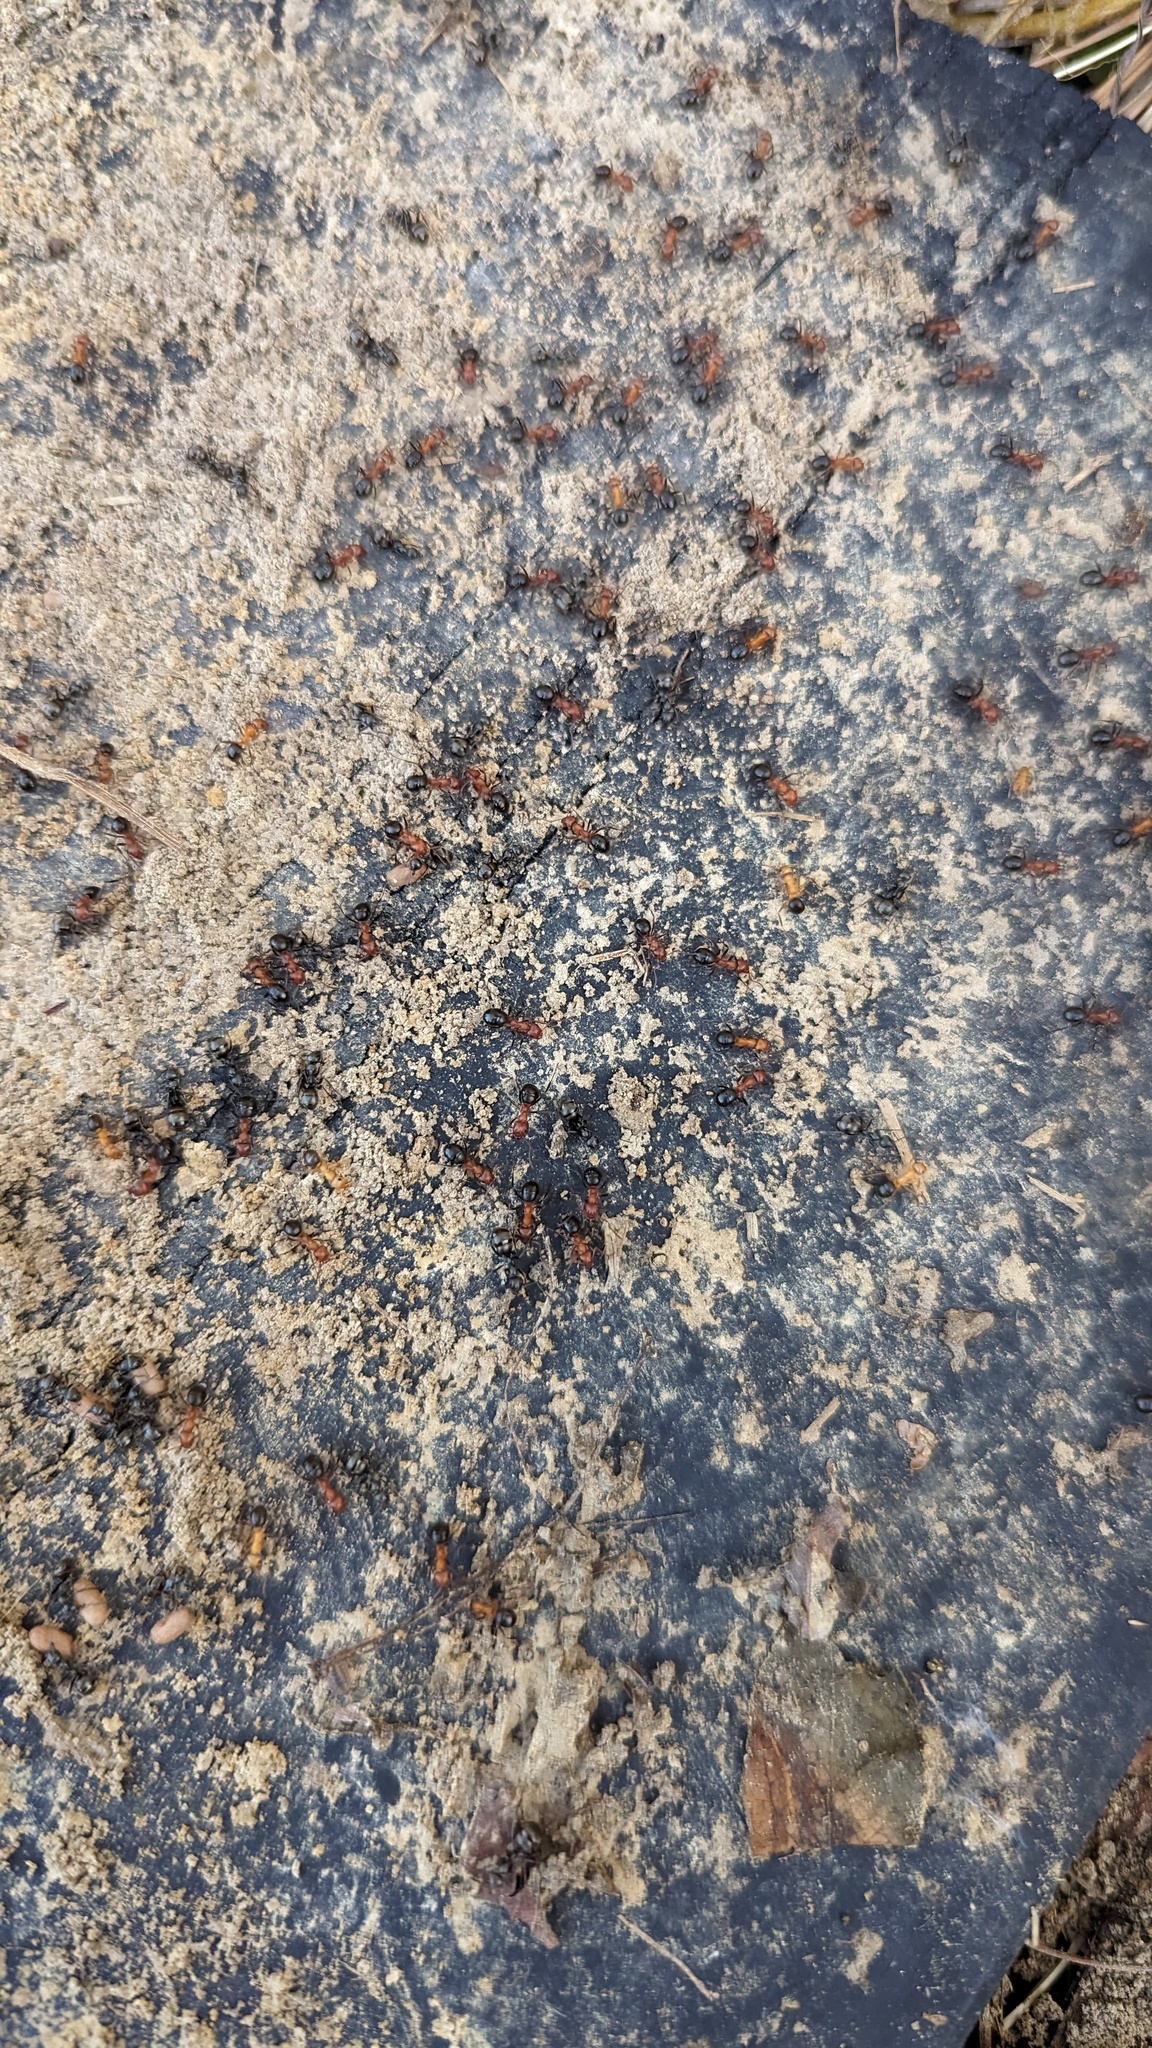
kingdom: Animalia
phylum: Arthropoda
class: Insecta
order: Hymenoptera
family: Formicidae
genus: Formica
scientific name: Formica exsectoides
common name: Allegheny mound ant
